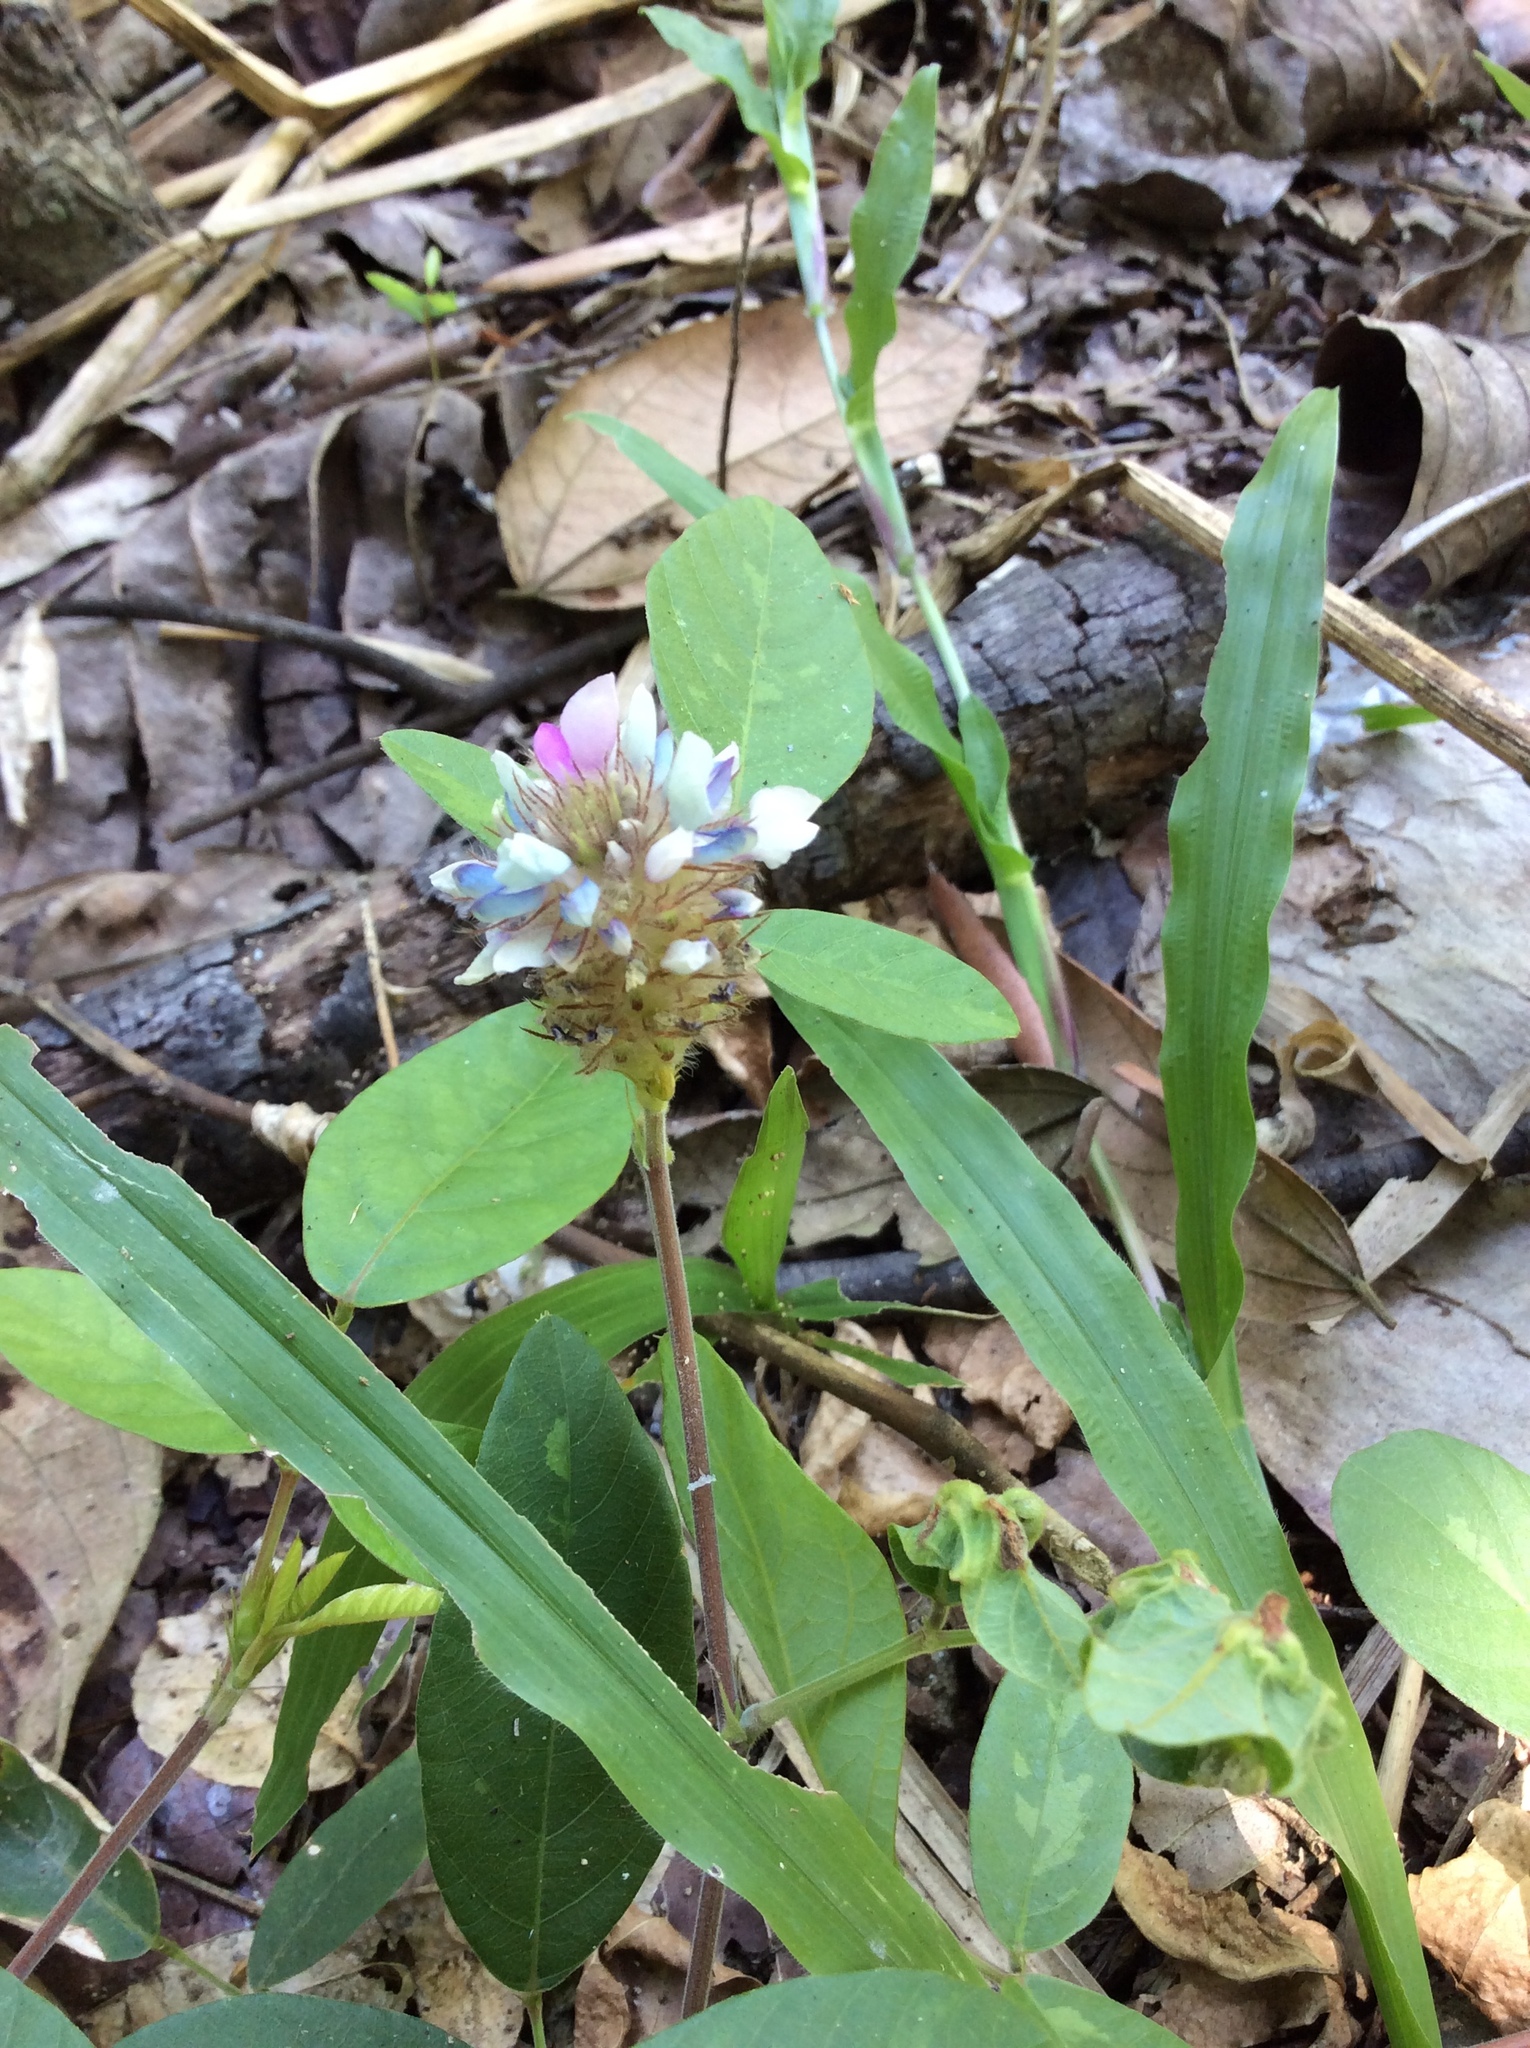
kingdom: Plantae
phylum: Tracheophyta
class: Magnoliopsida
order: Fabales
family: Fabaceae
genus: Uraria
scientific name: Uraria lagopodioides
